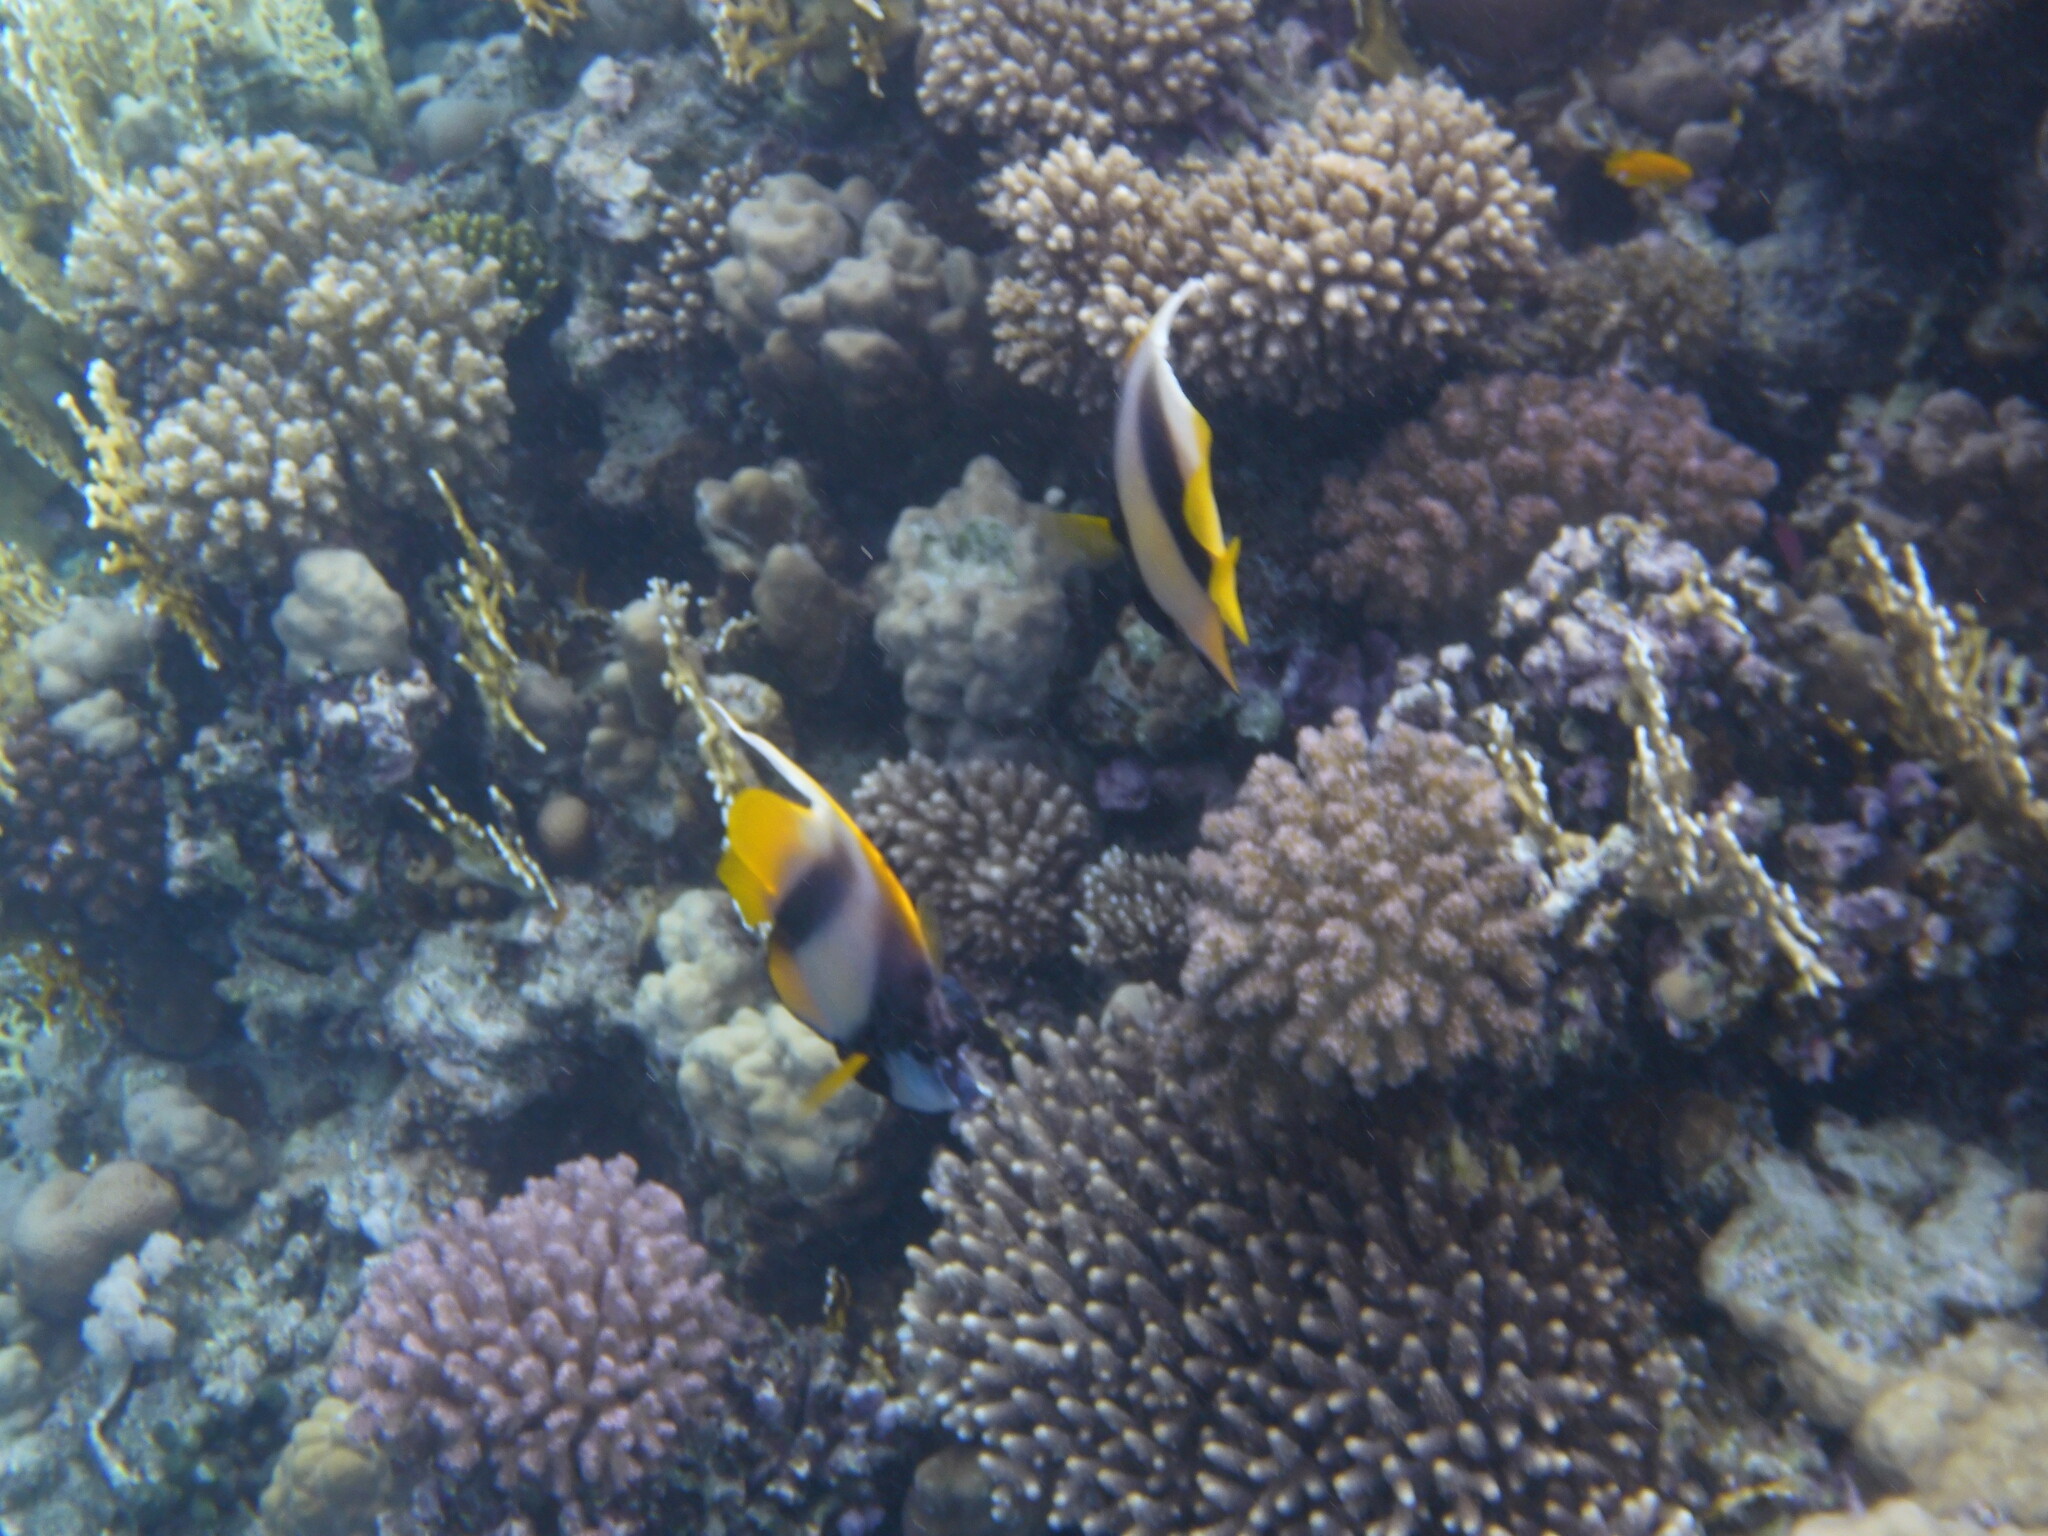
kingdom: Animalia
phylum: Chordata
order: Perciformes
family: Chaetodontidae
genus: Heniochus
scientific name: Heniochus intermedius
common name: Red sea bannerfish
